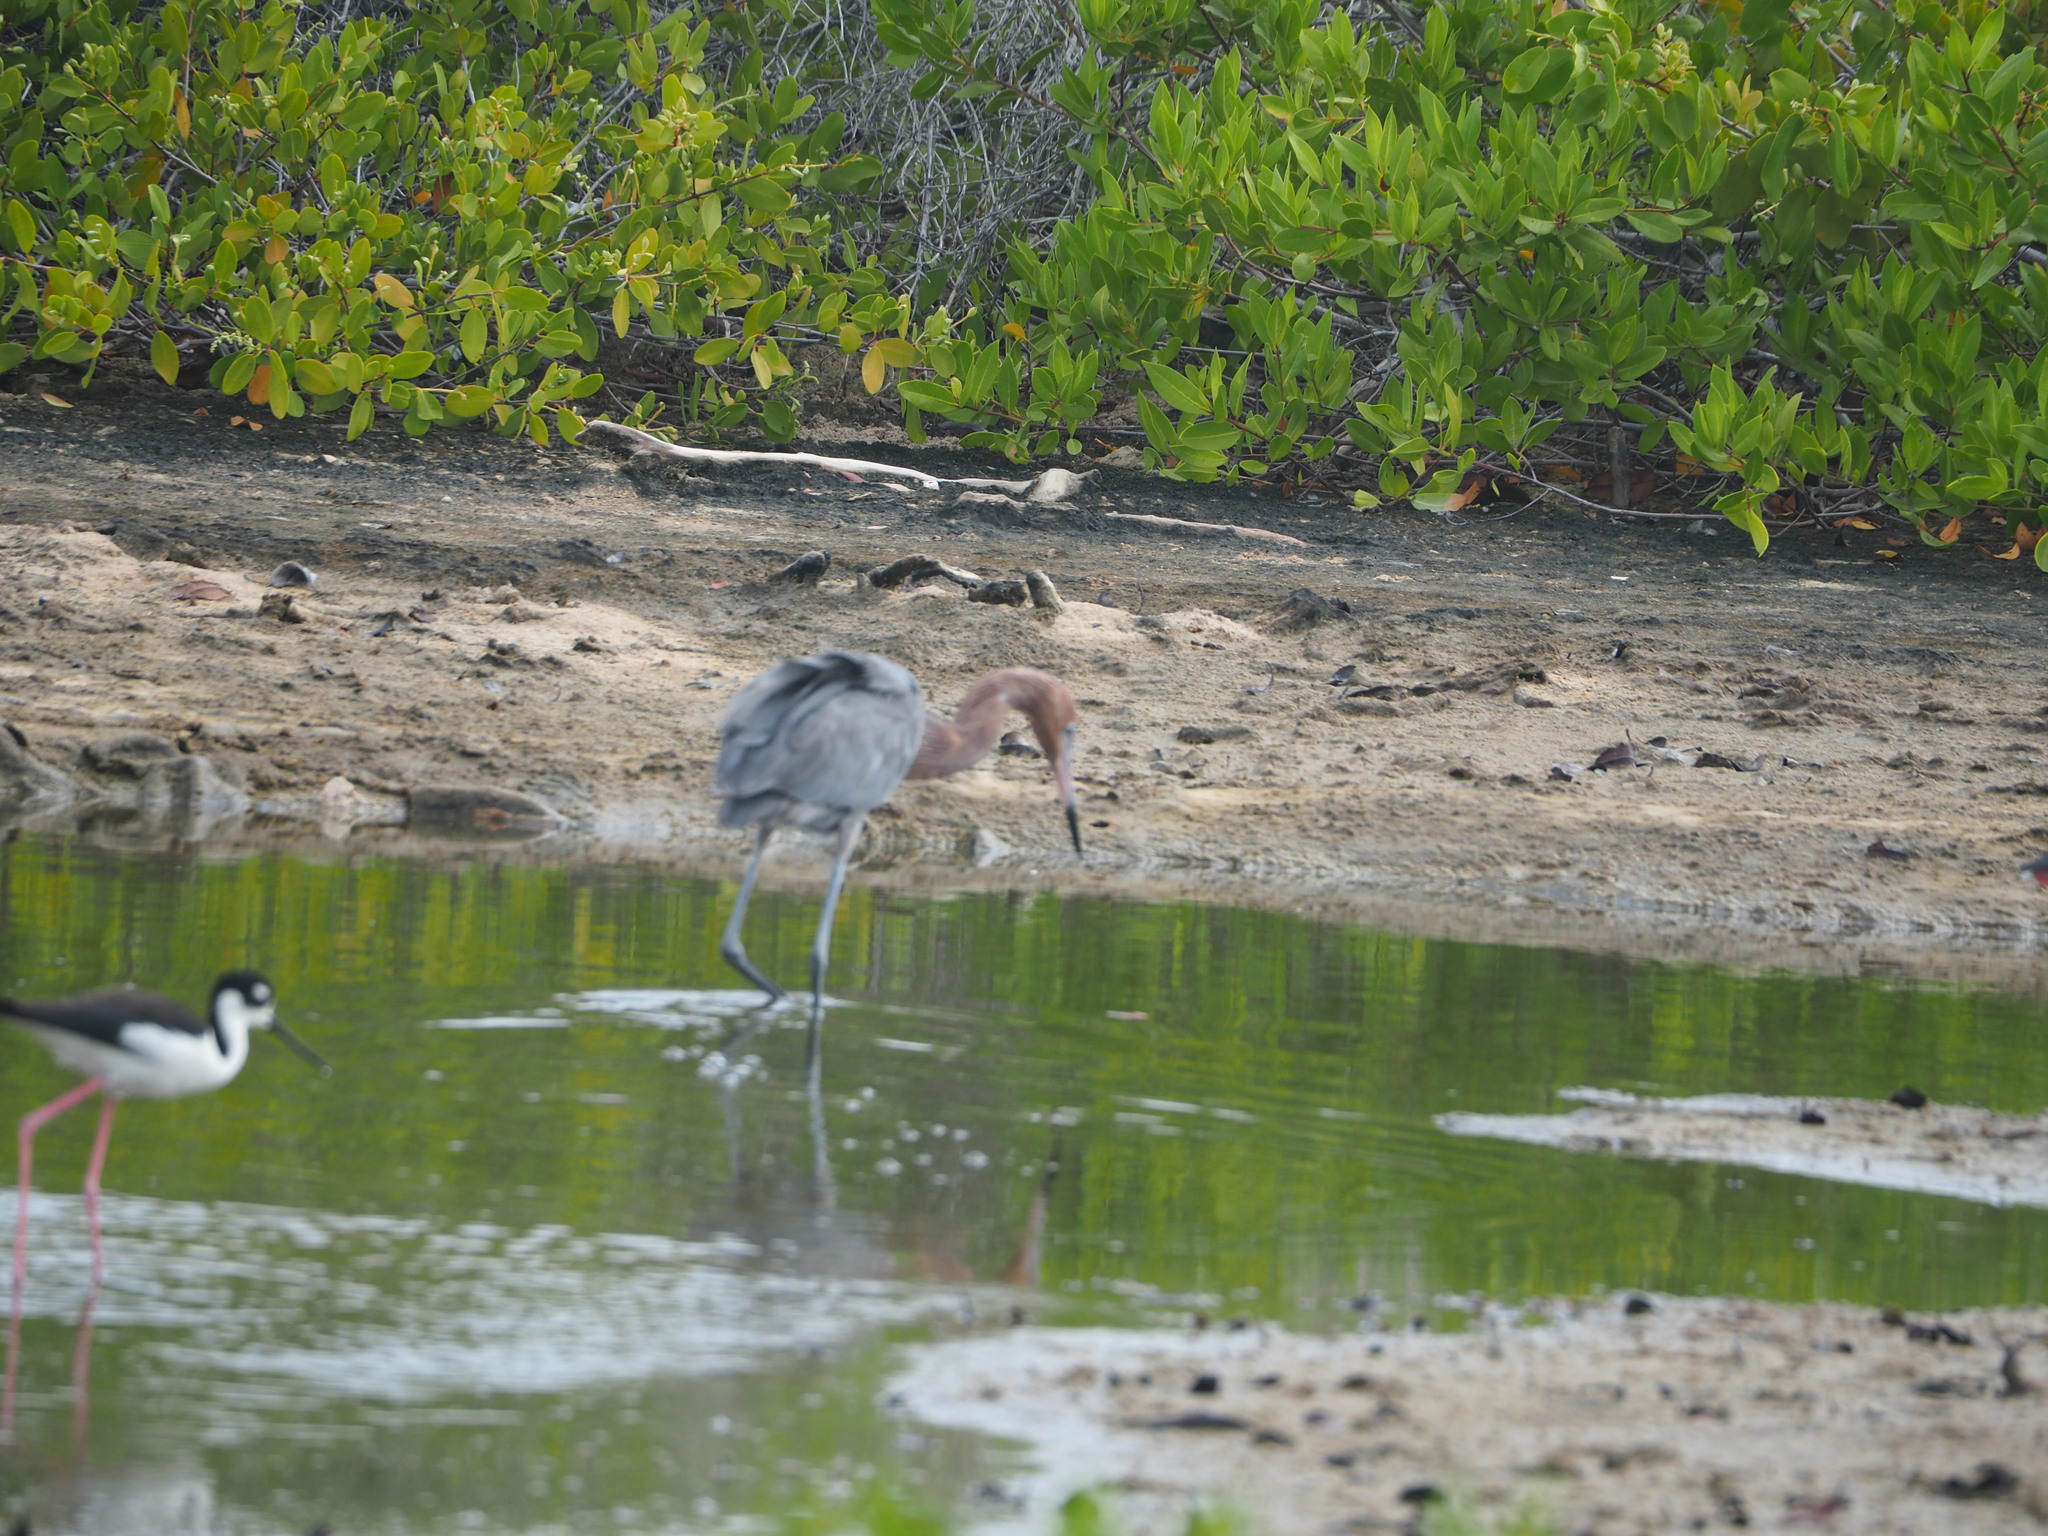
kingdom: Animalia
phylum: Chordata
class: Aves
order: Pelecaniformes
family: Ardeidae
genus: Egretta
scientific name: Egretta rufescens
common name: Reddish egret
